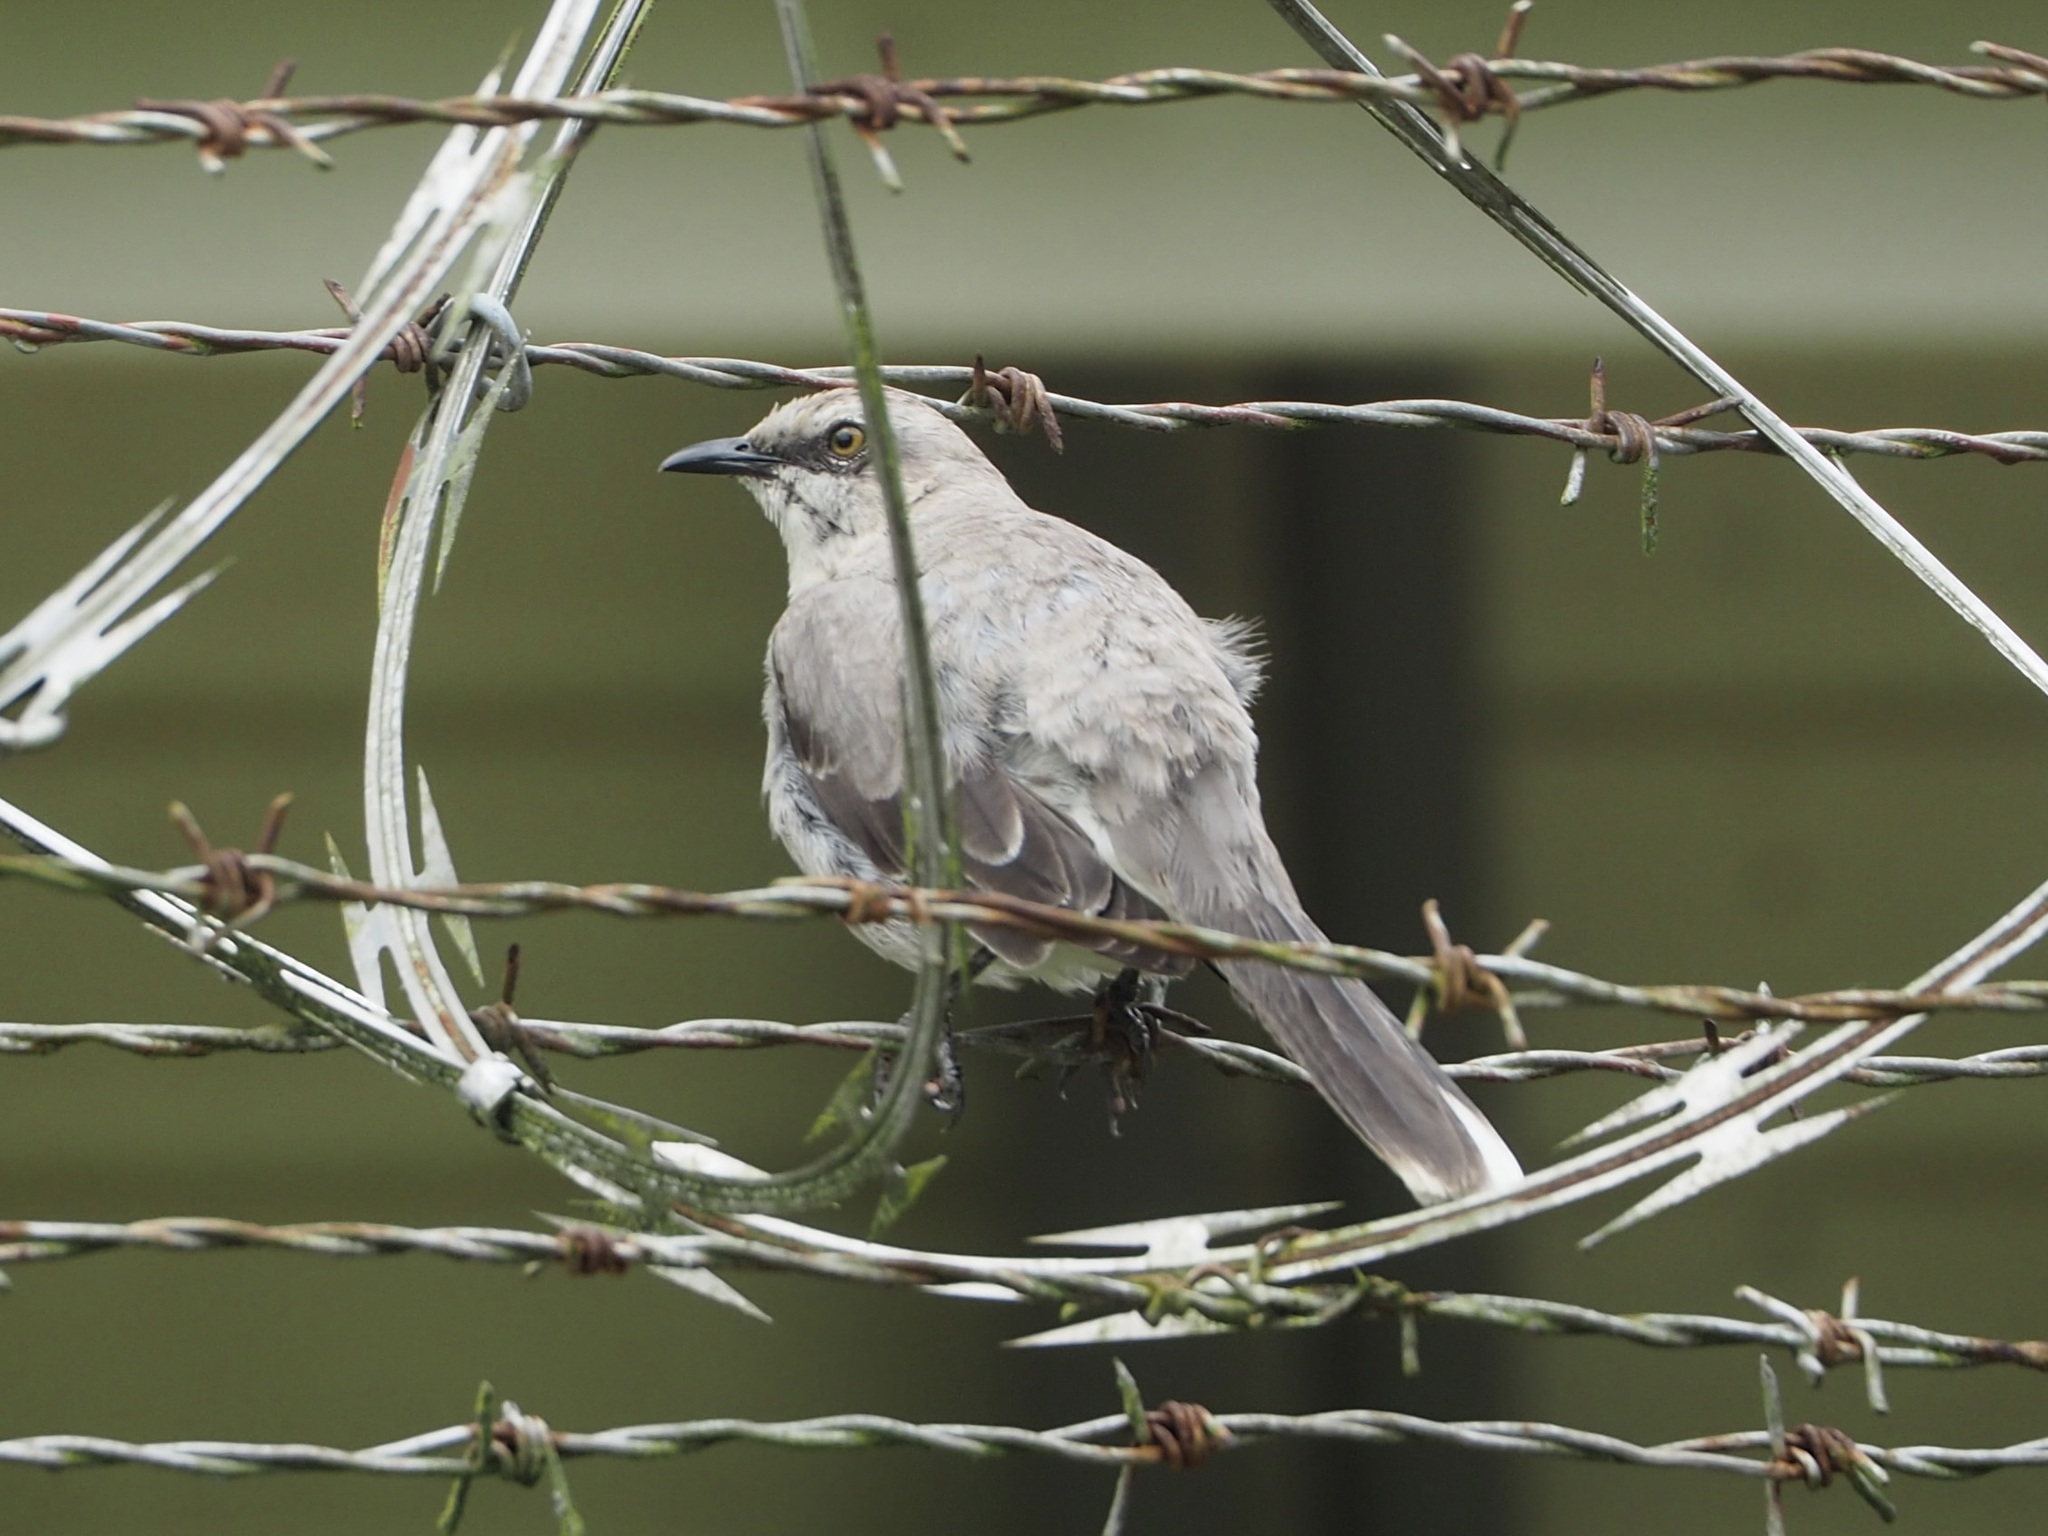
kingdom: Animalia
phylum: Chordata
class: Aves
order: Passeriformes
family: Mimidae
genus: Mimus
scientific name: Mimus gilvus
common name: Tropical mockingbird
